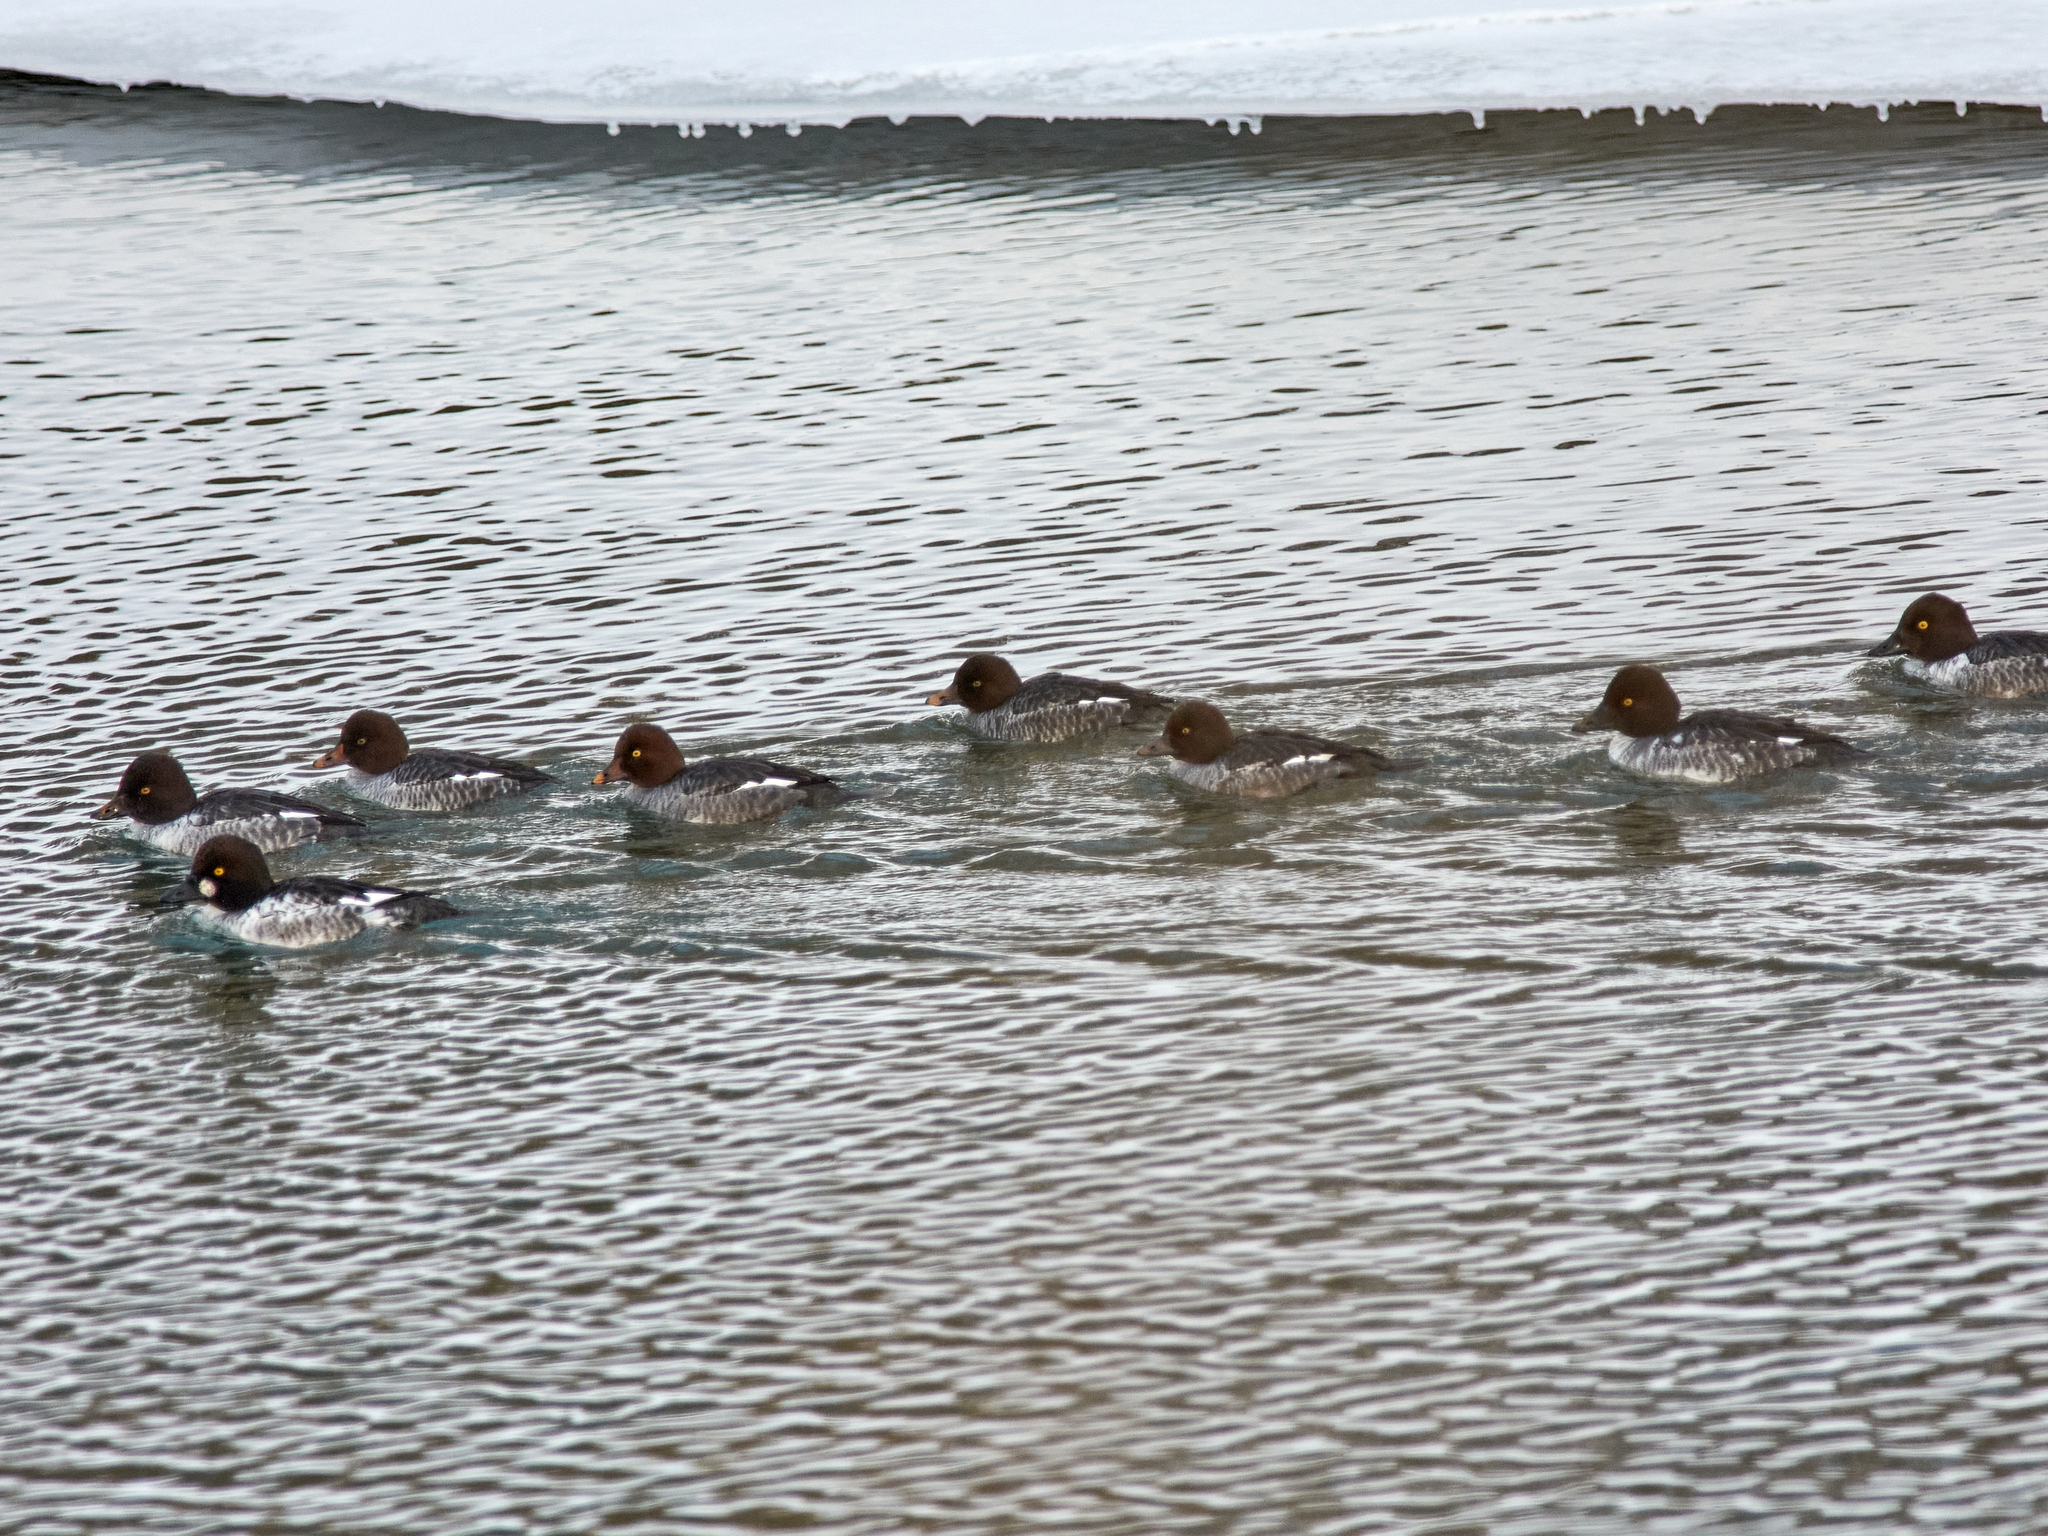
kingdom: Animalia
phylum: Chordata
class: Aves
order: Anseriformes
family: Anatidae
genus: Bucephala
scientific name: Bucephala clangula
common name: Common goldeneye
